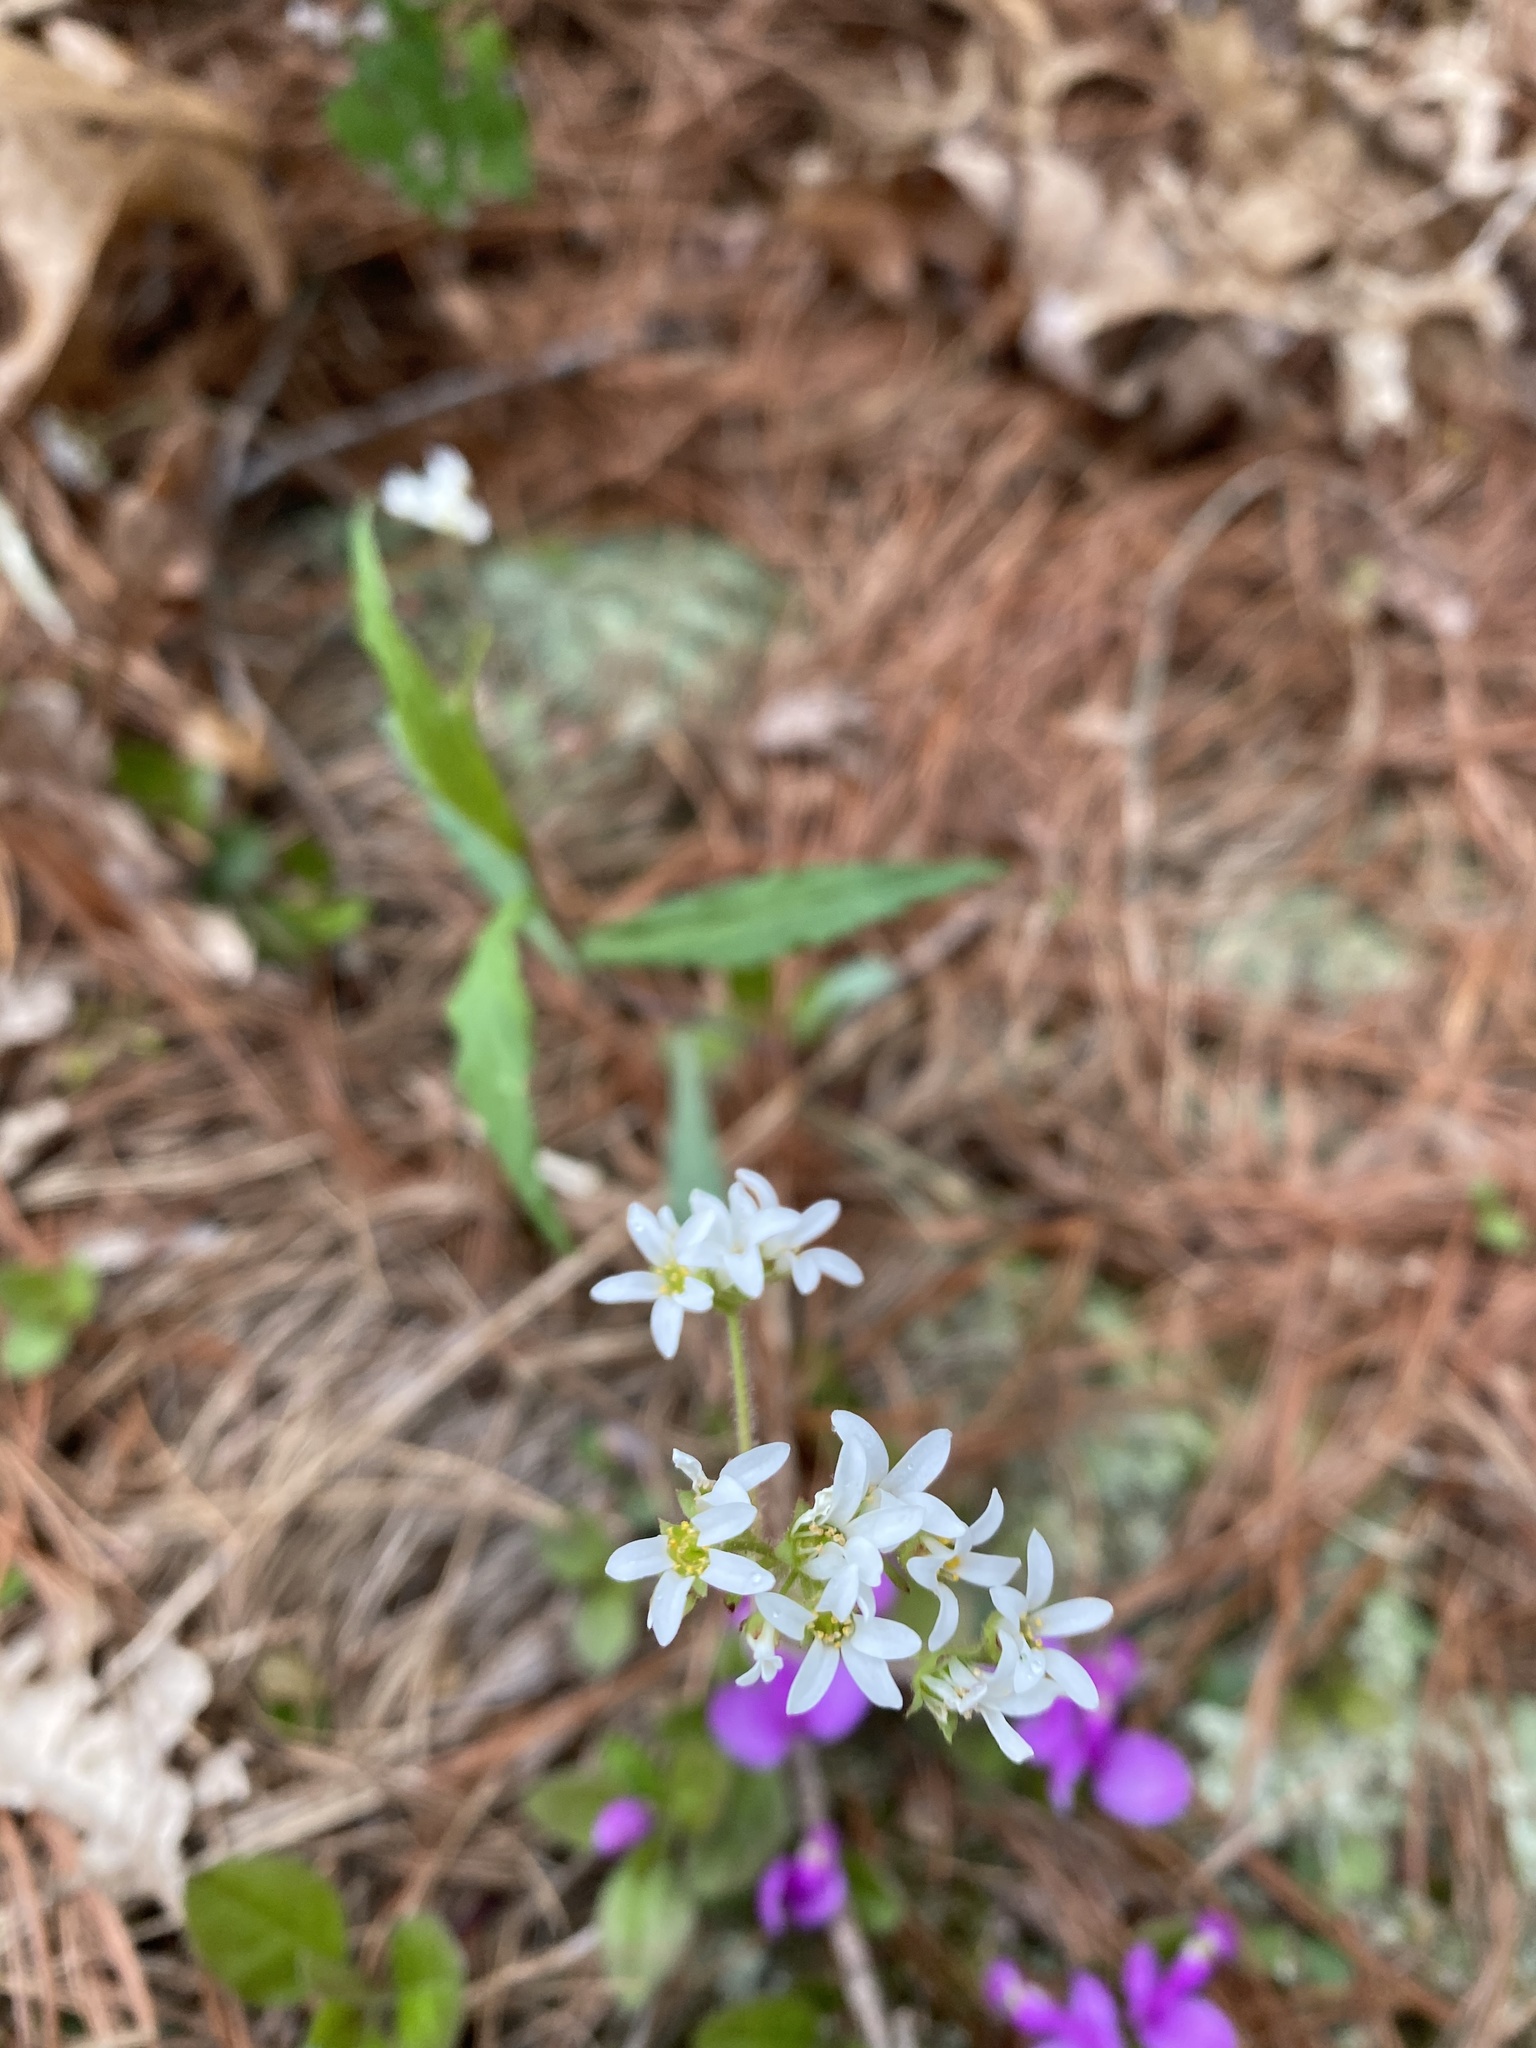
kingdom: Plantae
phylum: Tracheophyta
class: Magnoliopsida
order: Saxifragales
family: Saxifragaceae
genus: Micranthes
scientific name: Micranthes virginiensis
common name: Early saxifrage
